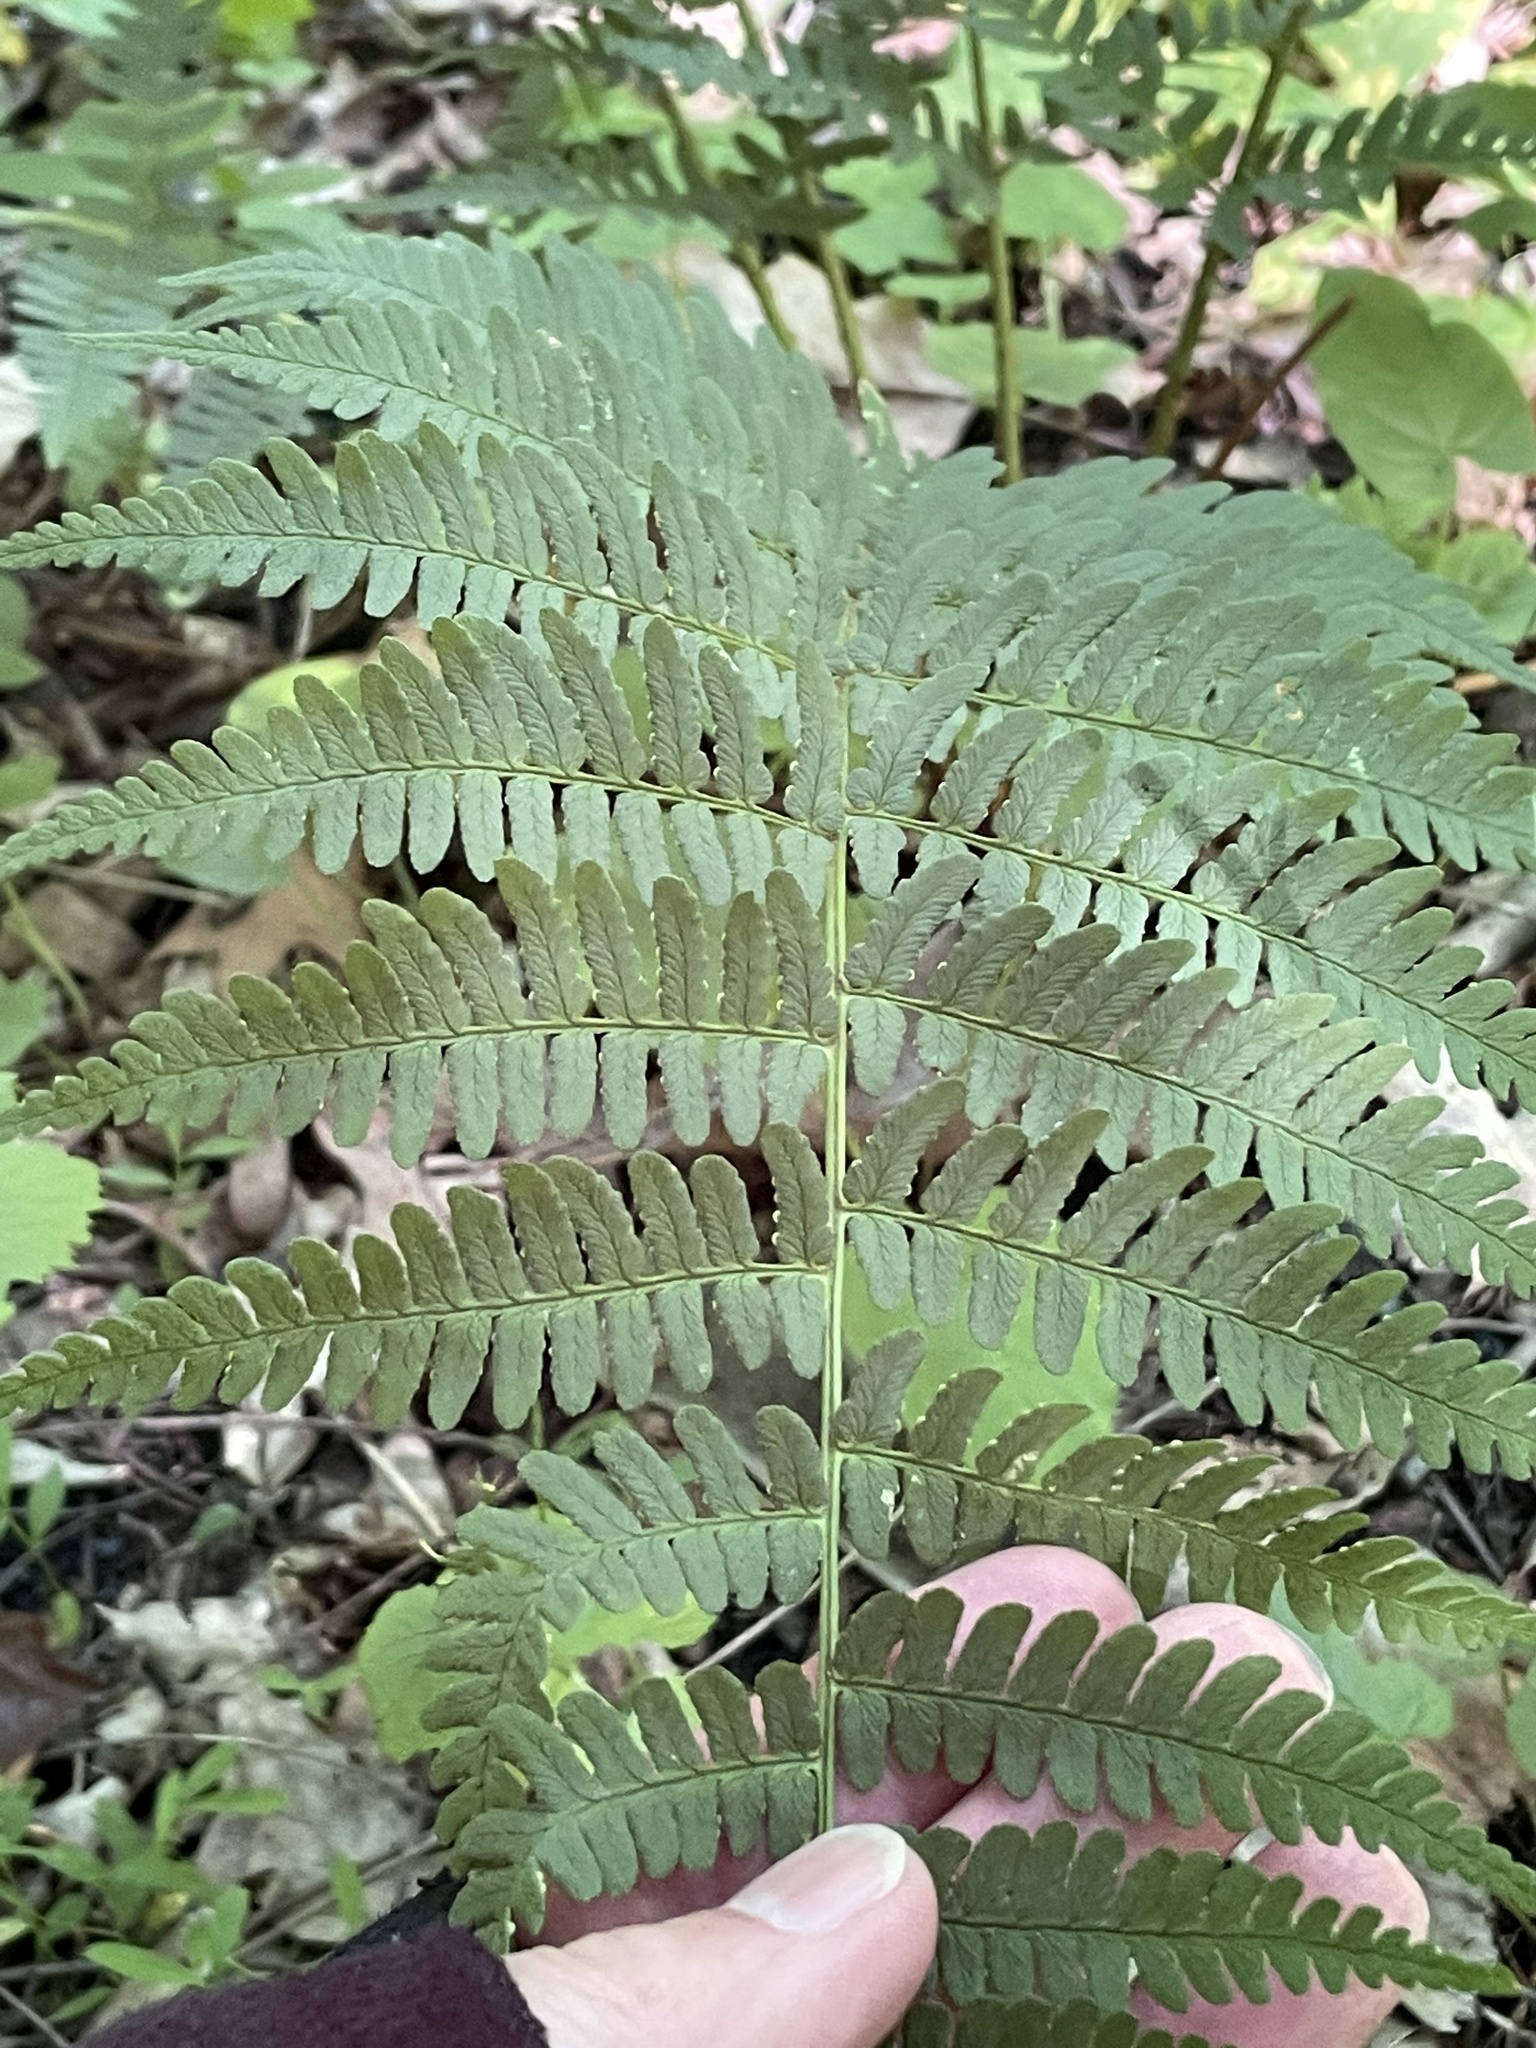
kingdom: Plantae
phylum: Tracheophyta
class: Polypodiopsida
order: Polypodiales
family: Dryopteridaceae
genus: Dryopteris
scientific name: Dryopteris marginalis
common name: Marginal wood fern
